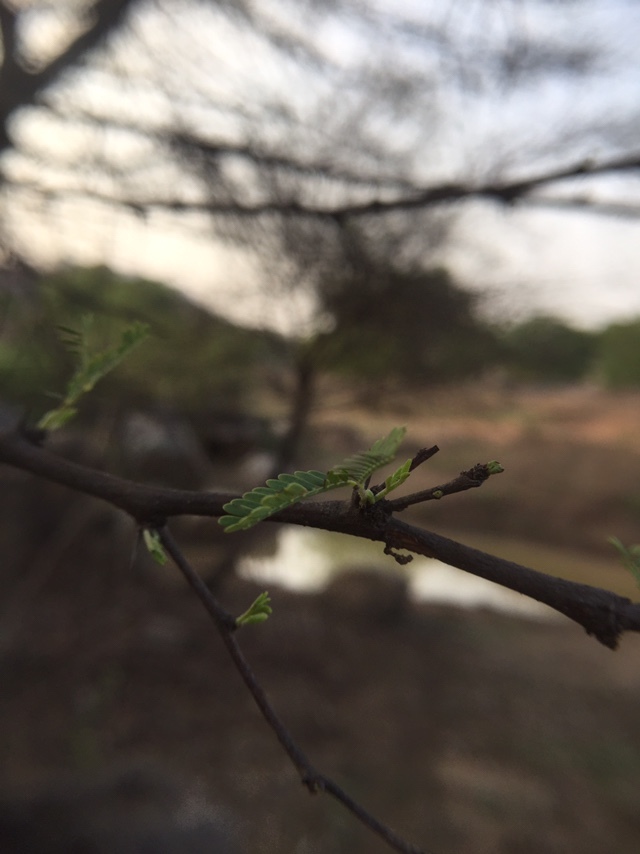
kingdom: Plantae
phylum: Tracheophyta
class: Magnoliopsida
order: Fabales
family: Fabaceae
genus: Vachellia
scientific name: Vachellia nilotica
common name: Arabic gumtree
